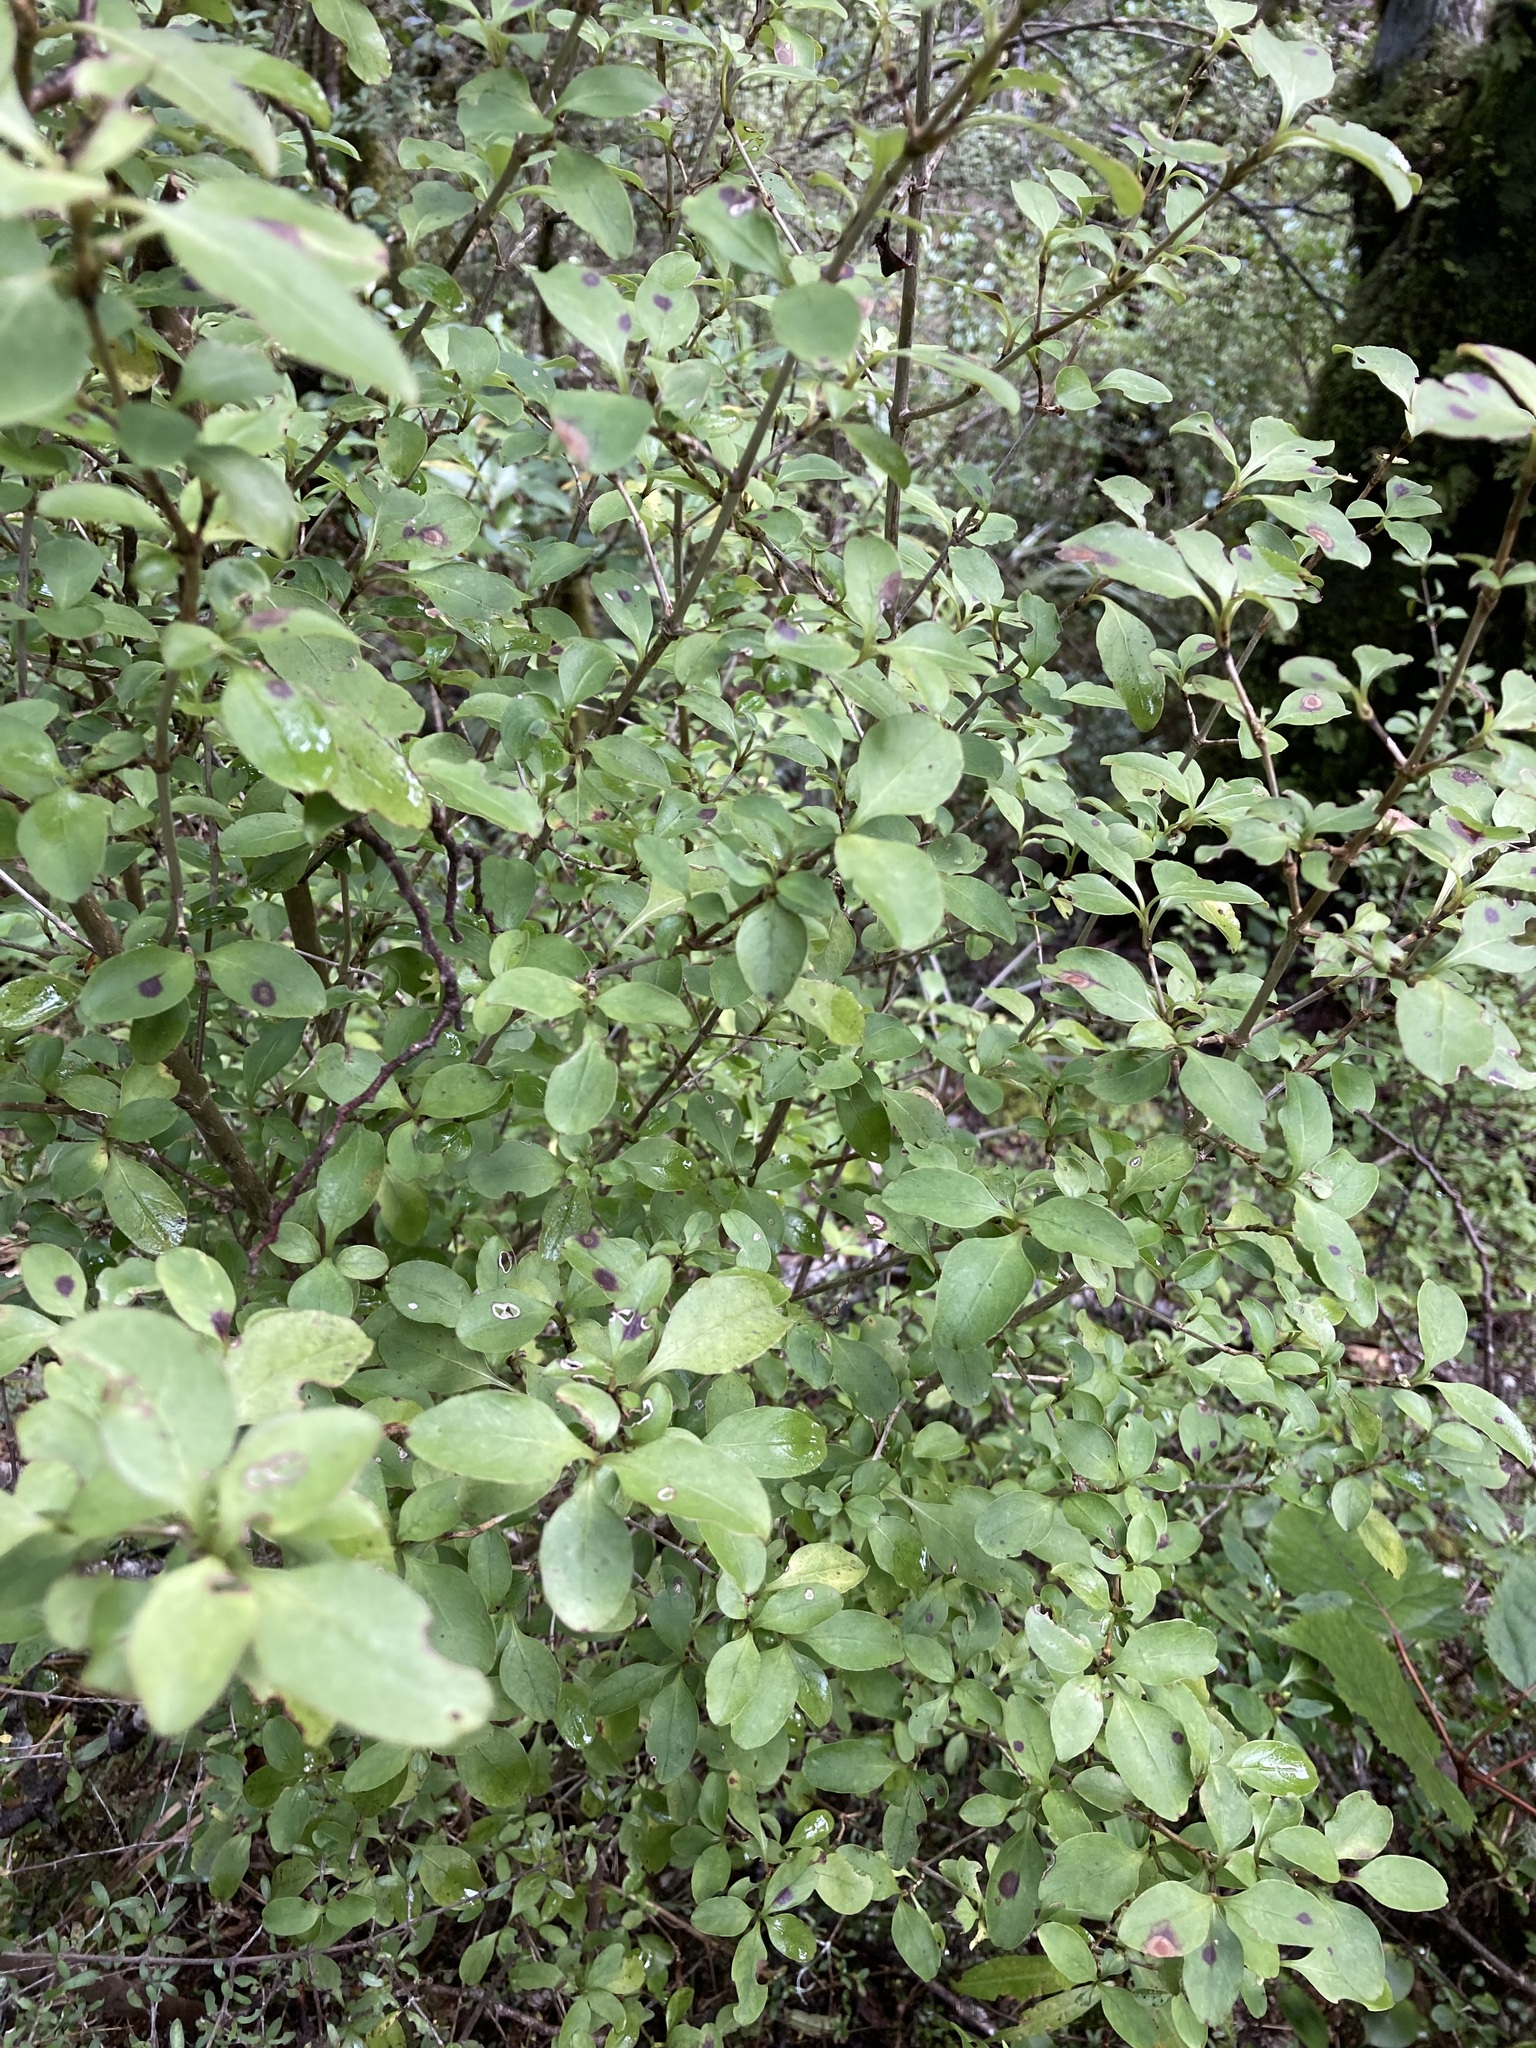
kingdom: Plantae
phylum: Tracheophyta
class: Magnoliopsida
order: Gentianales
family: Rubiaceae
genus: Coprosma
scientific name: Coprosma foetidissima
